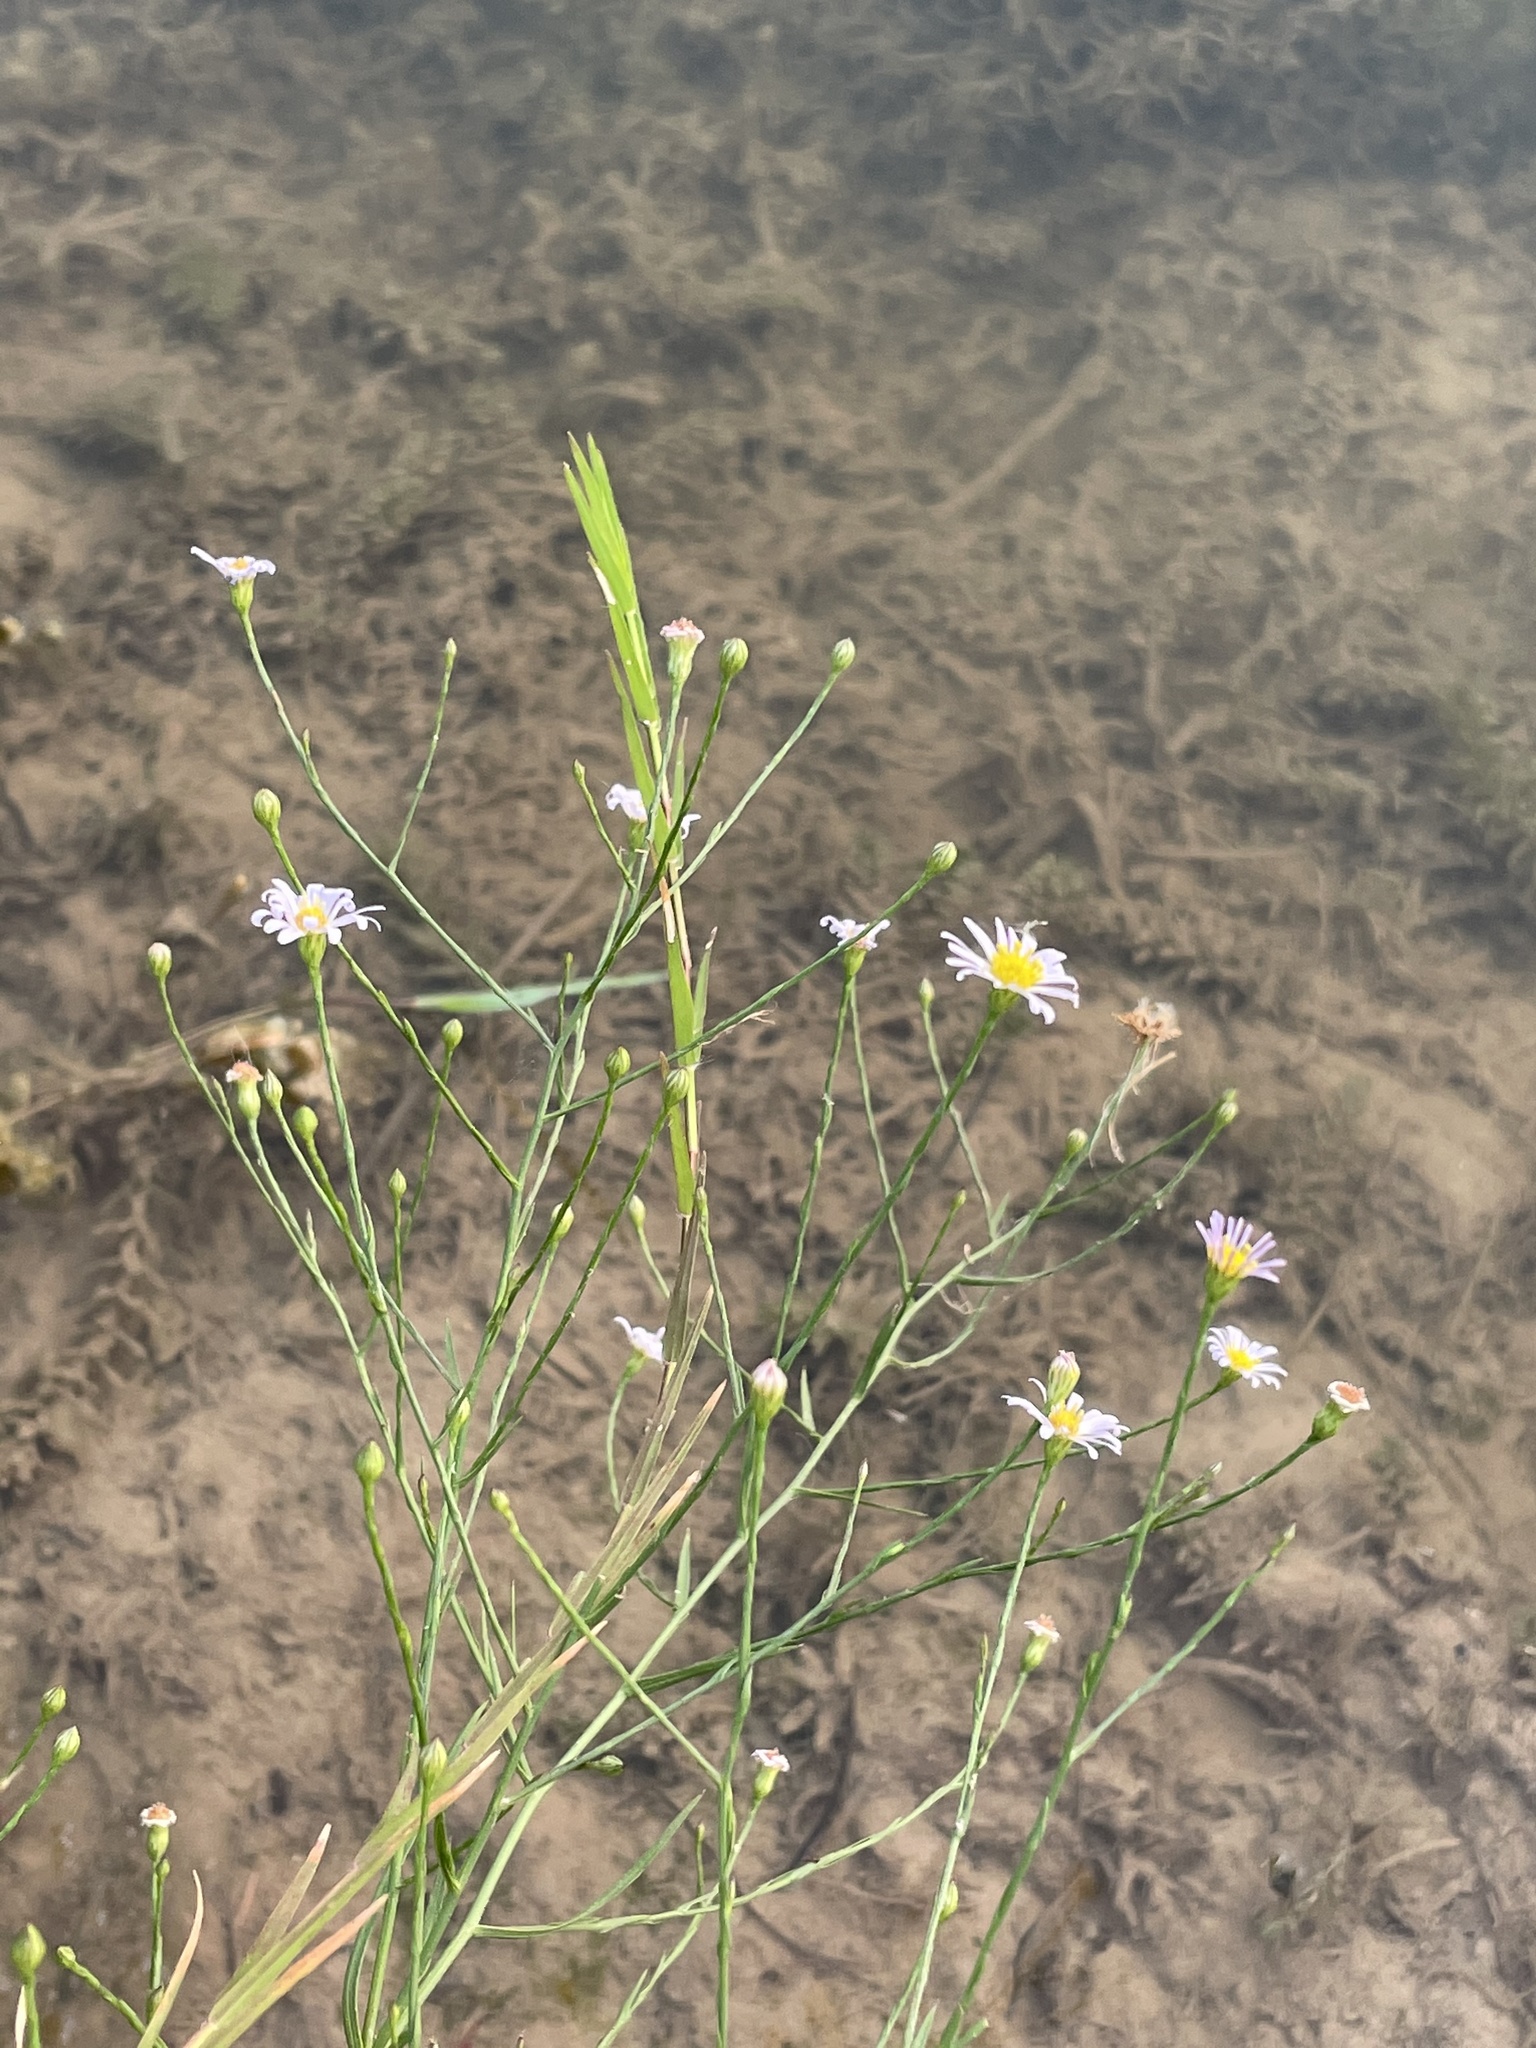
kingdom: Plantae
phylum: Tracheophyta
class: Magnoliopsida
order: Asterales
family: Asteraceae
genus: Symphyotrichum
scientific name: Symphyotrichum divaricatum
